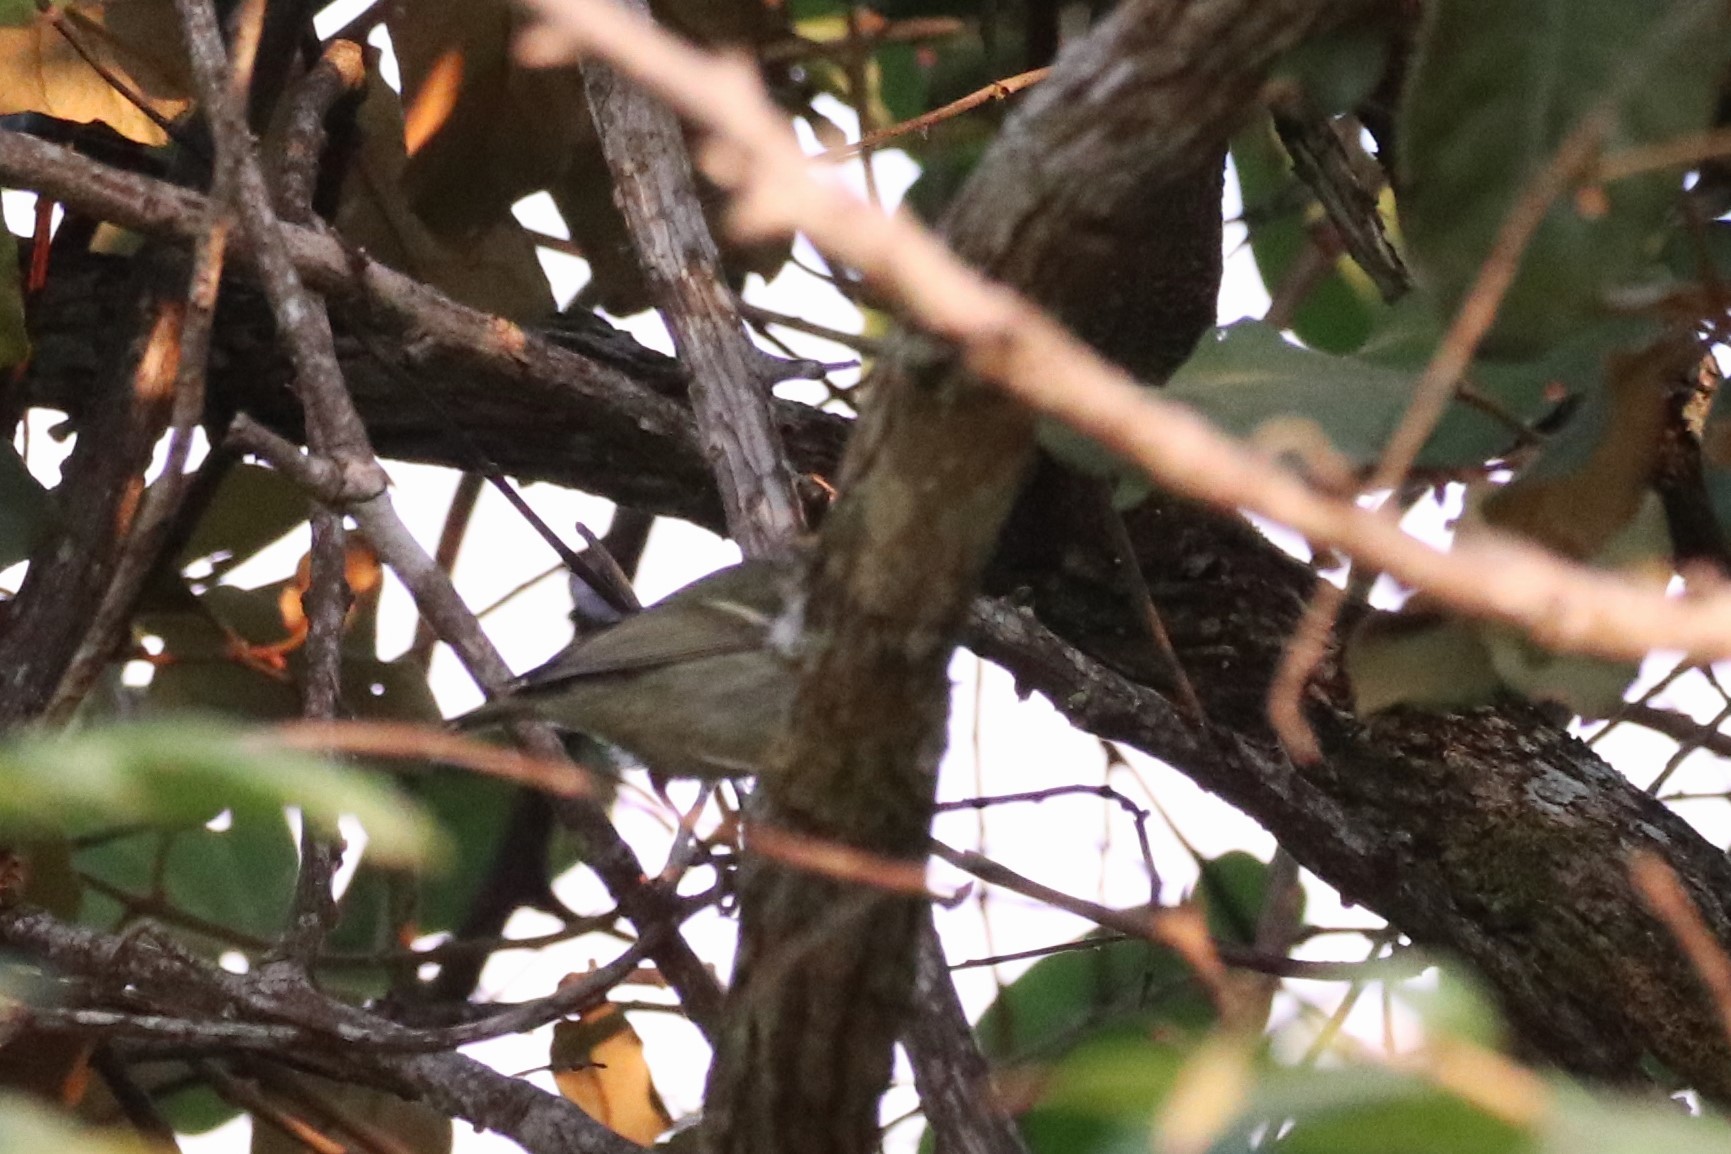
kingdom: Animalia
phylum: Chordata
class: Aves
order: Passeriformes
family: Phylloscopidae
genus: Phylloscopus
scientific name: Phylloscopus
